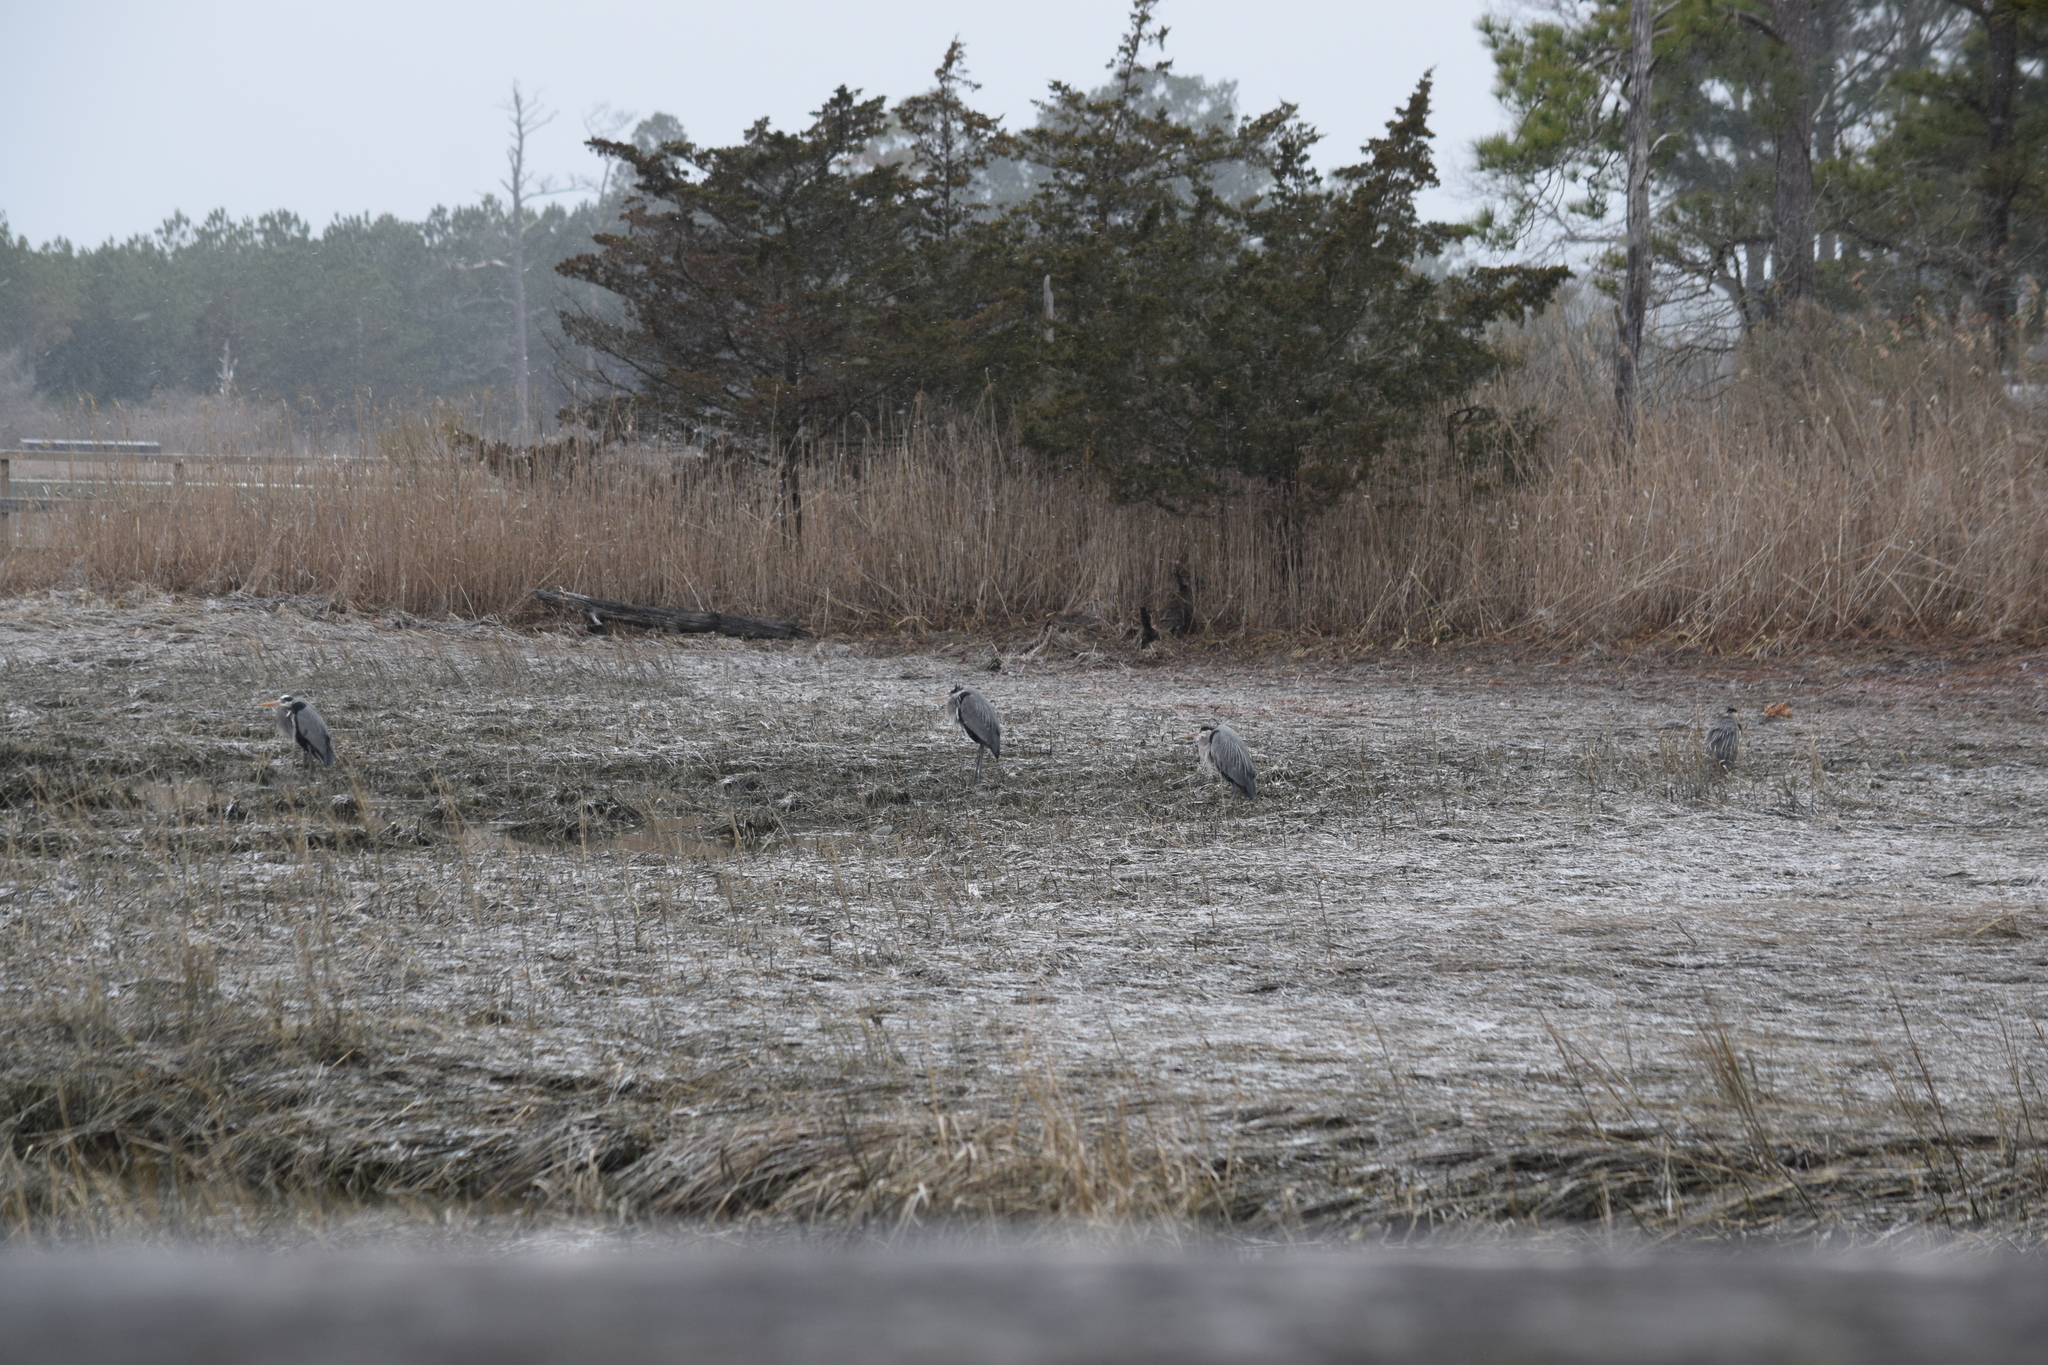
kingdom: Animalia
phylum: Chordata
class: Aves
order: Pelecaniformes
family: Ardeidae
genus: Ardea
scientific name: Ardea herodias
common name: Great blue heron
